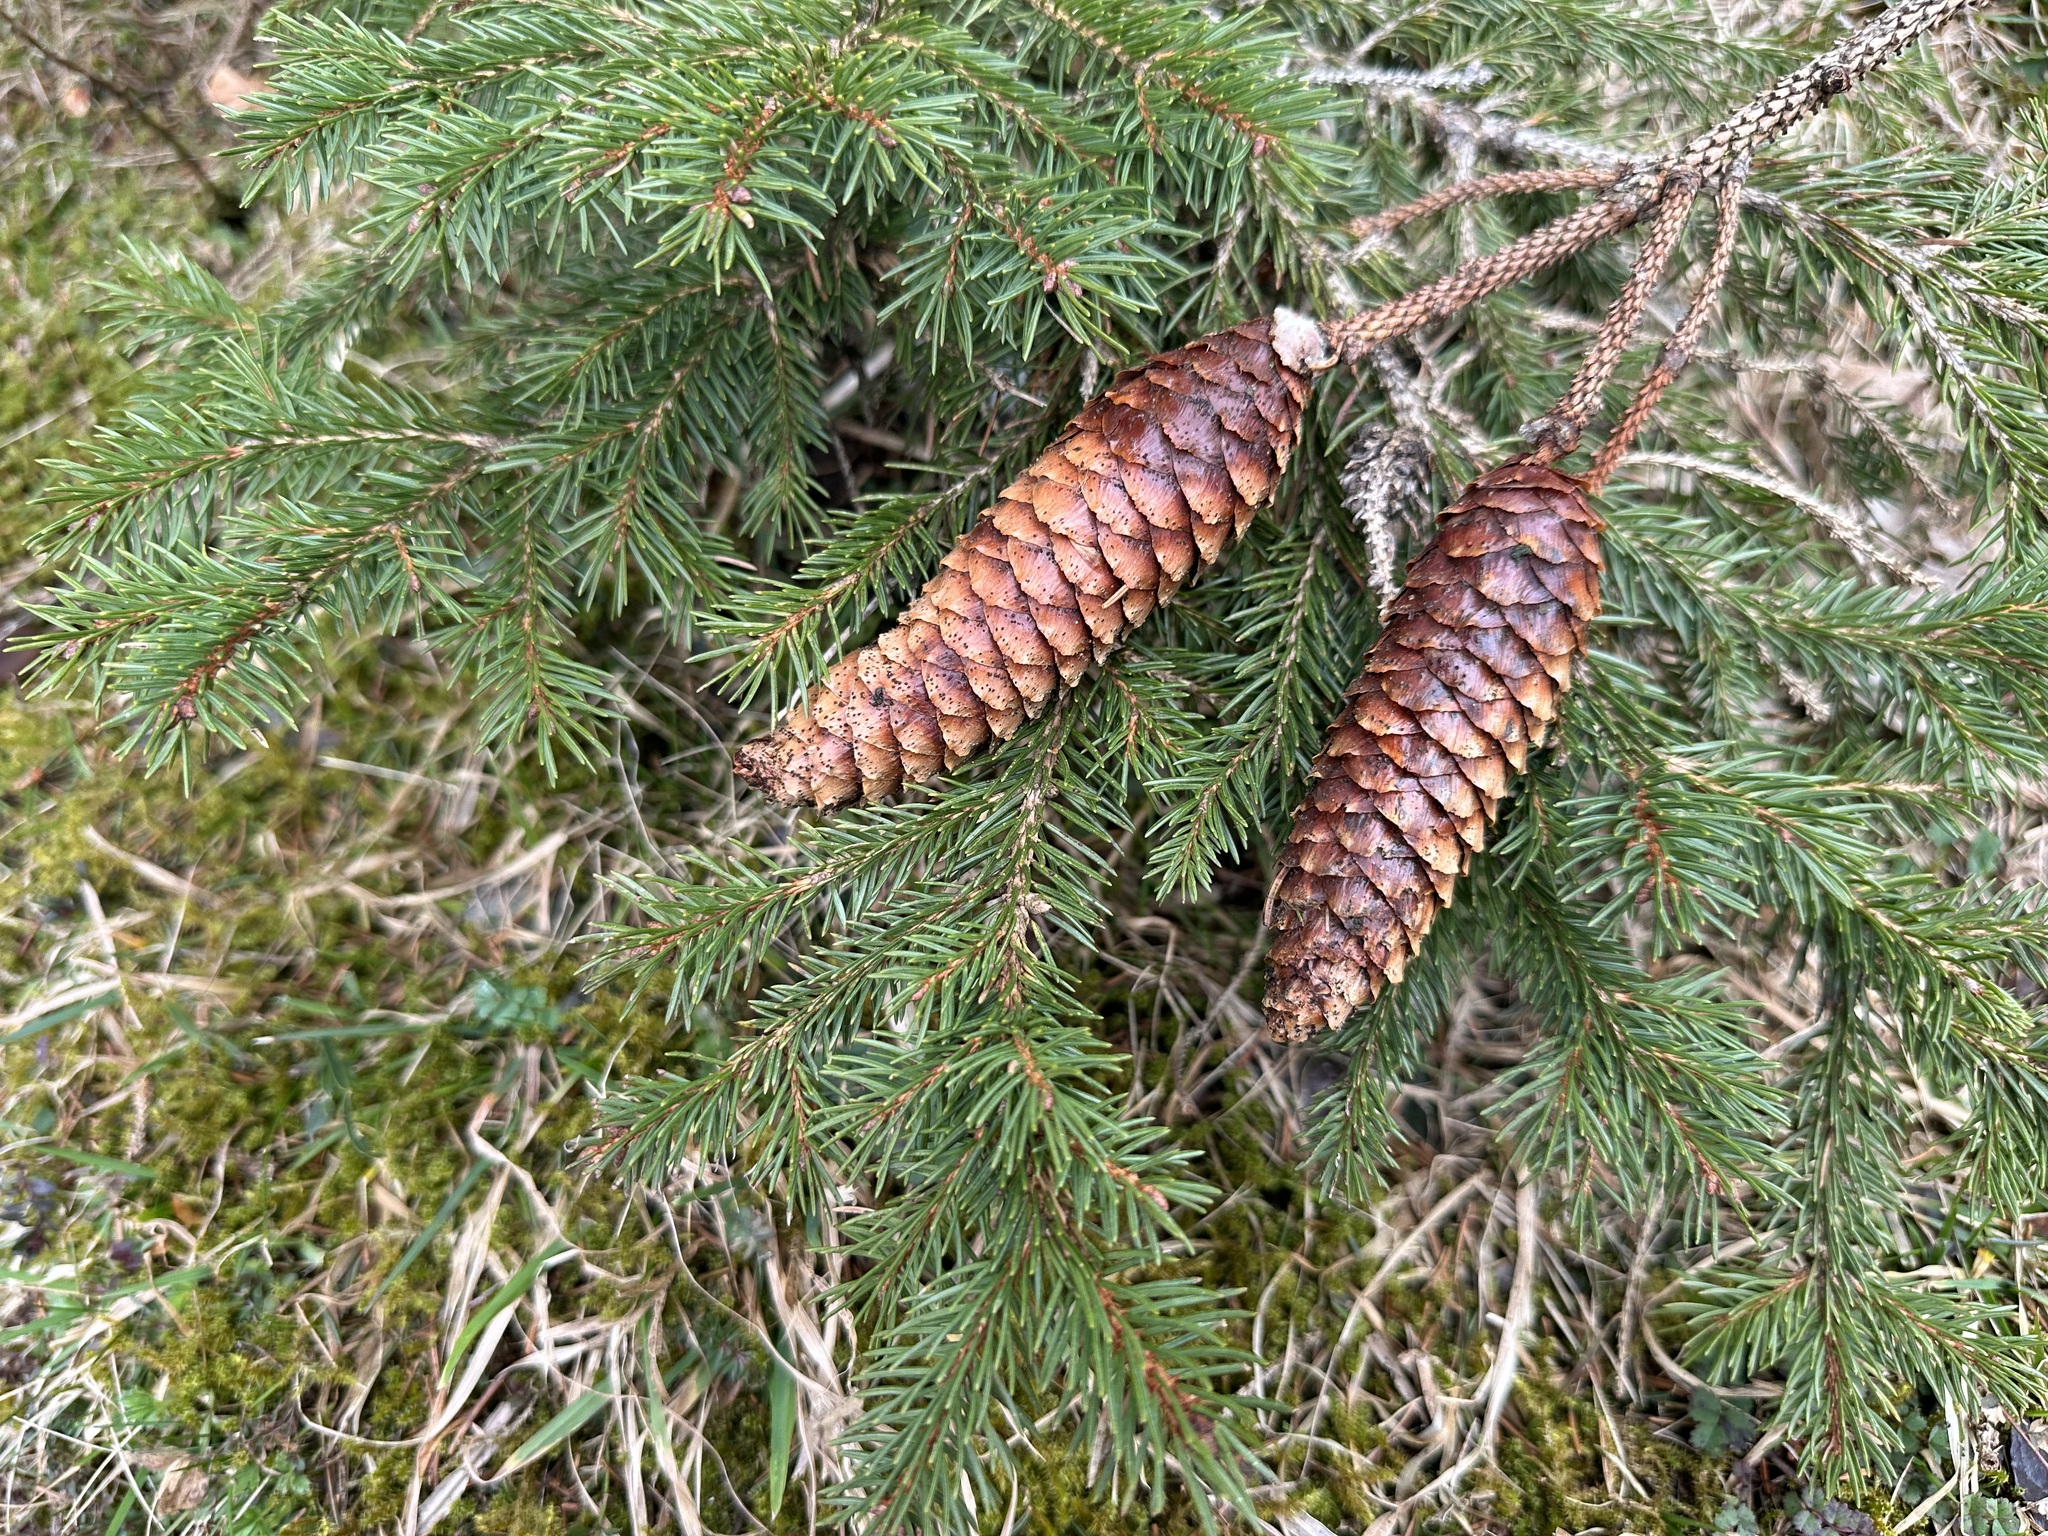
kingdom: Plantae
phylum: Tracheophyta
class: Pinopsida
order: Pinales
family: Pinaceae
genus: Picea
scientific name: Picea abies
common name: Norway spruce
